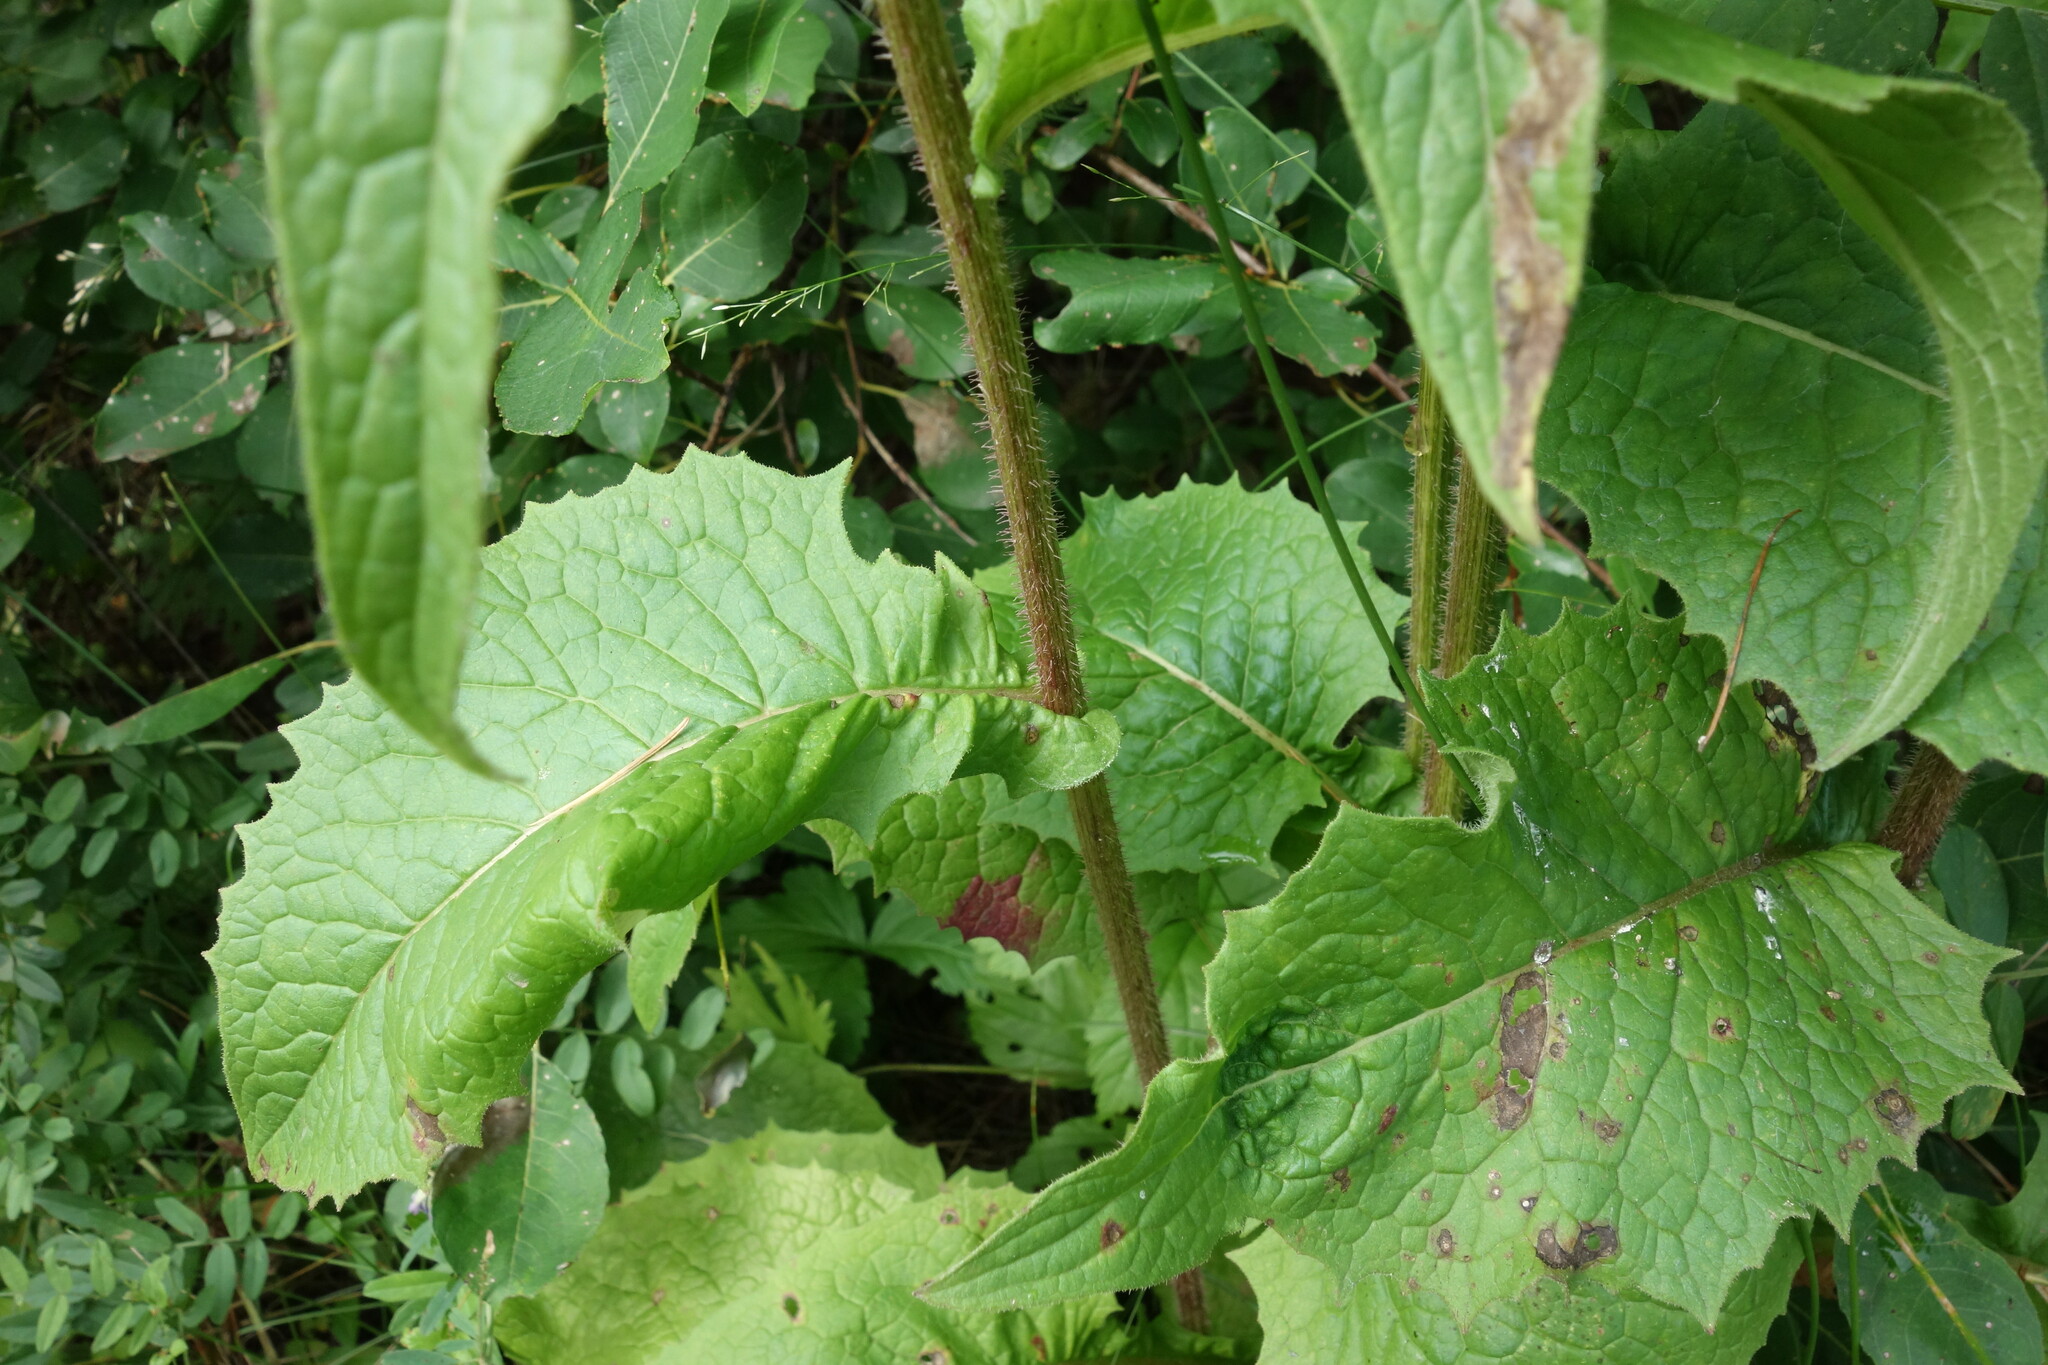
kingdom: Plantae
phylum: Tracheophyta
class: Magnoliopsida
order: Asterales
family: Asteraceae
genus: Crepis
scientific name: Crepis sibirica
